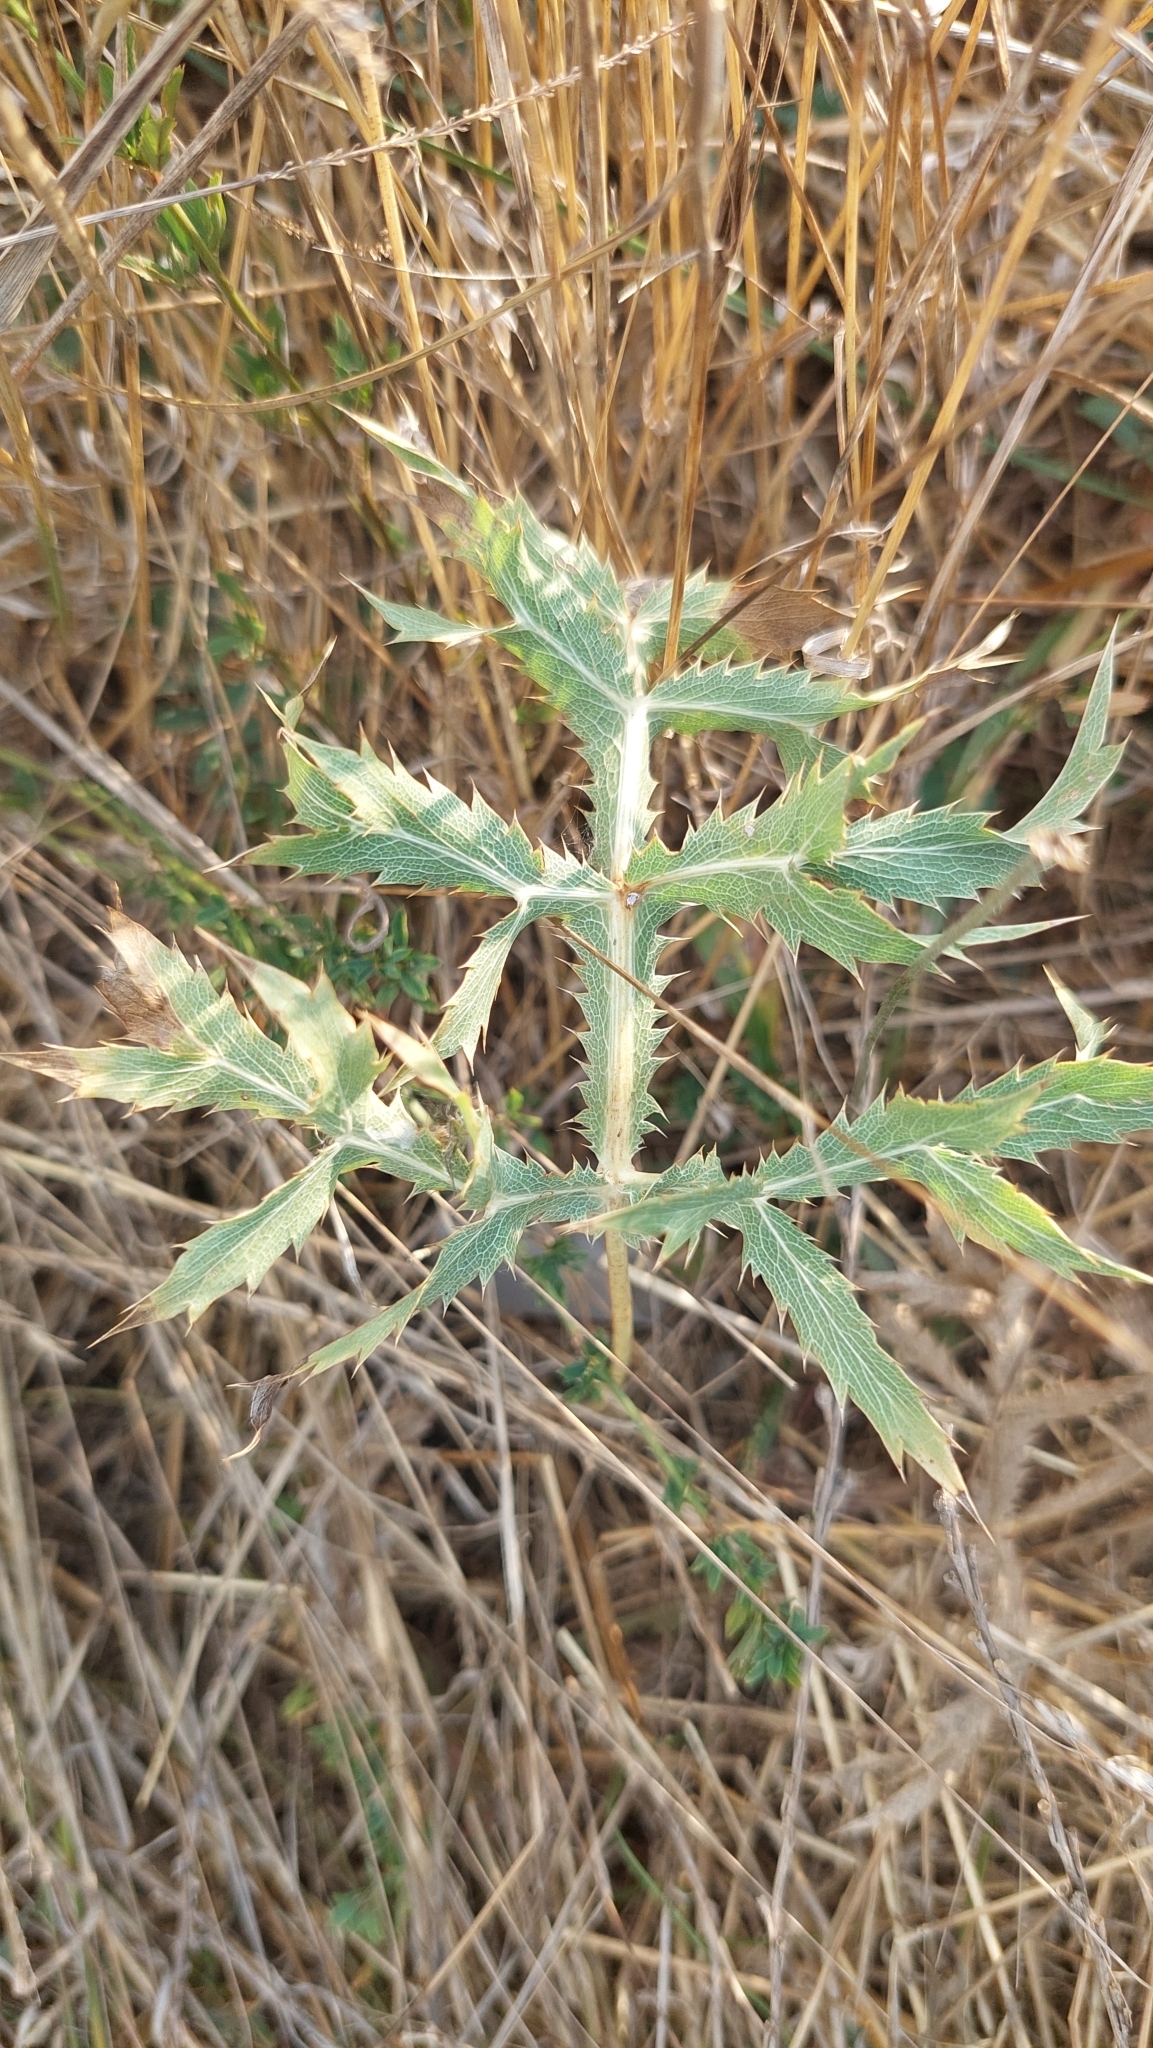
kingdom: Plantae
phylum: Tracheophyta
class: Magnoliopsida
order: Apiales
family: Apiaceae
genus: Eryngium
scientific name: Eryngium campestre
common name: Field eryngo
